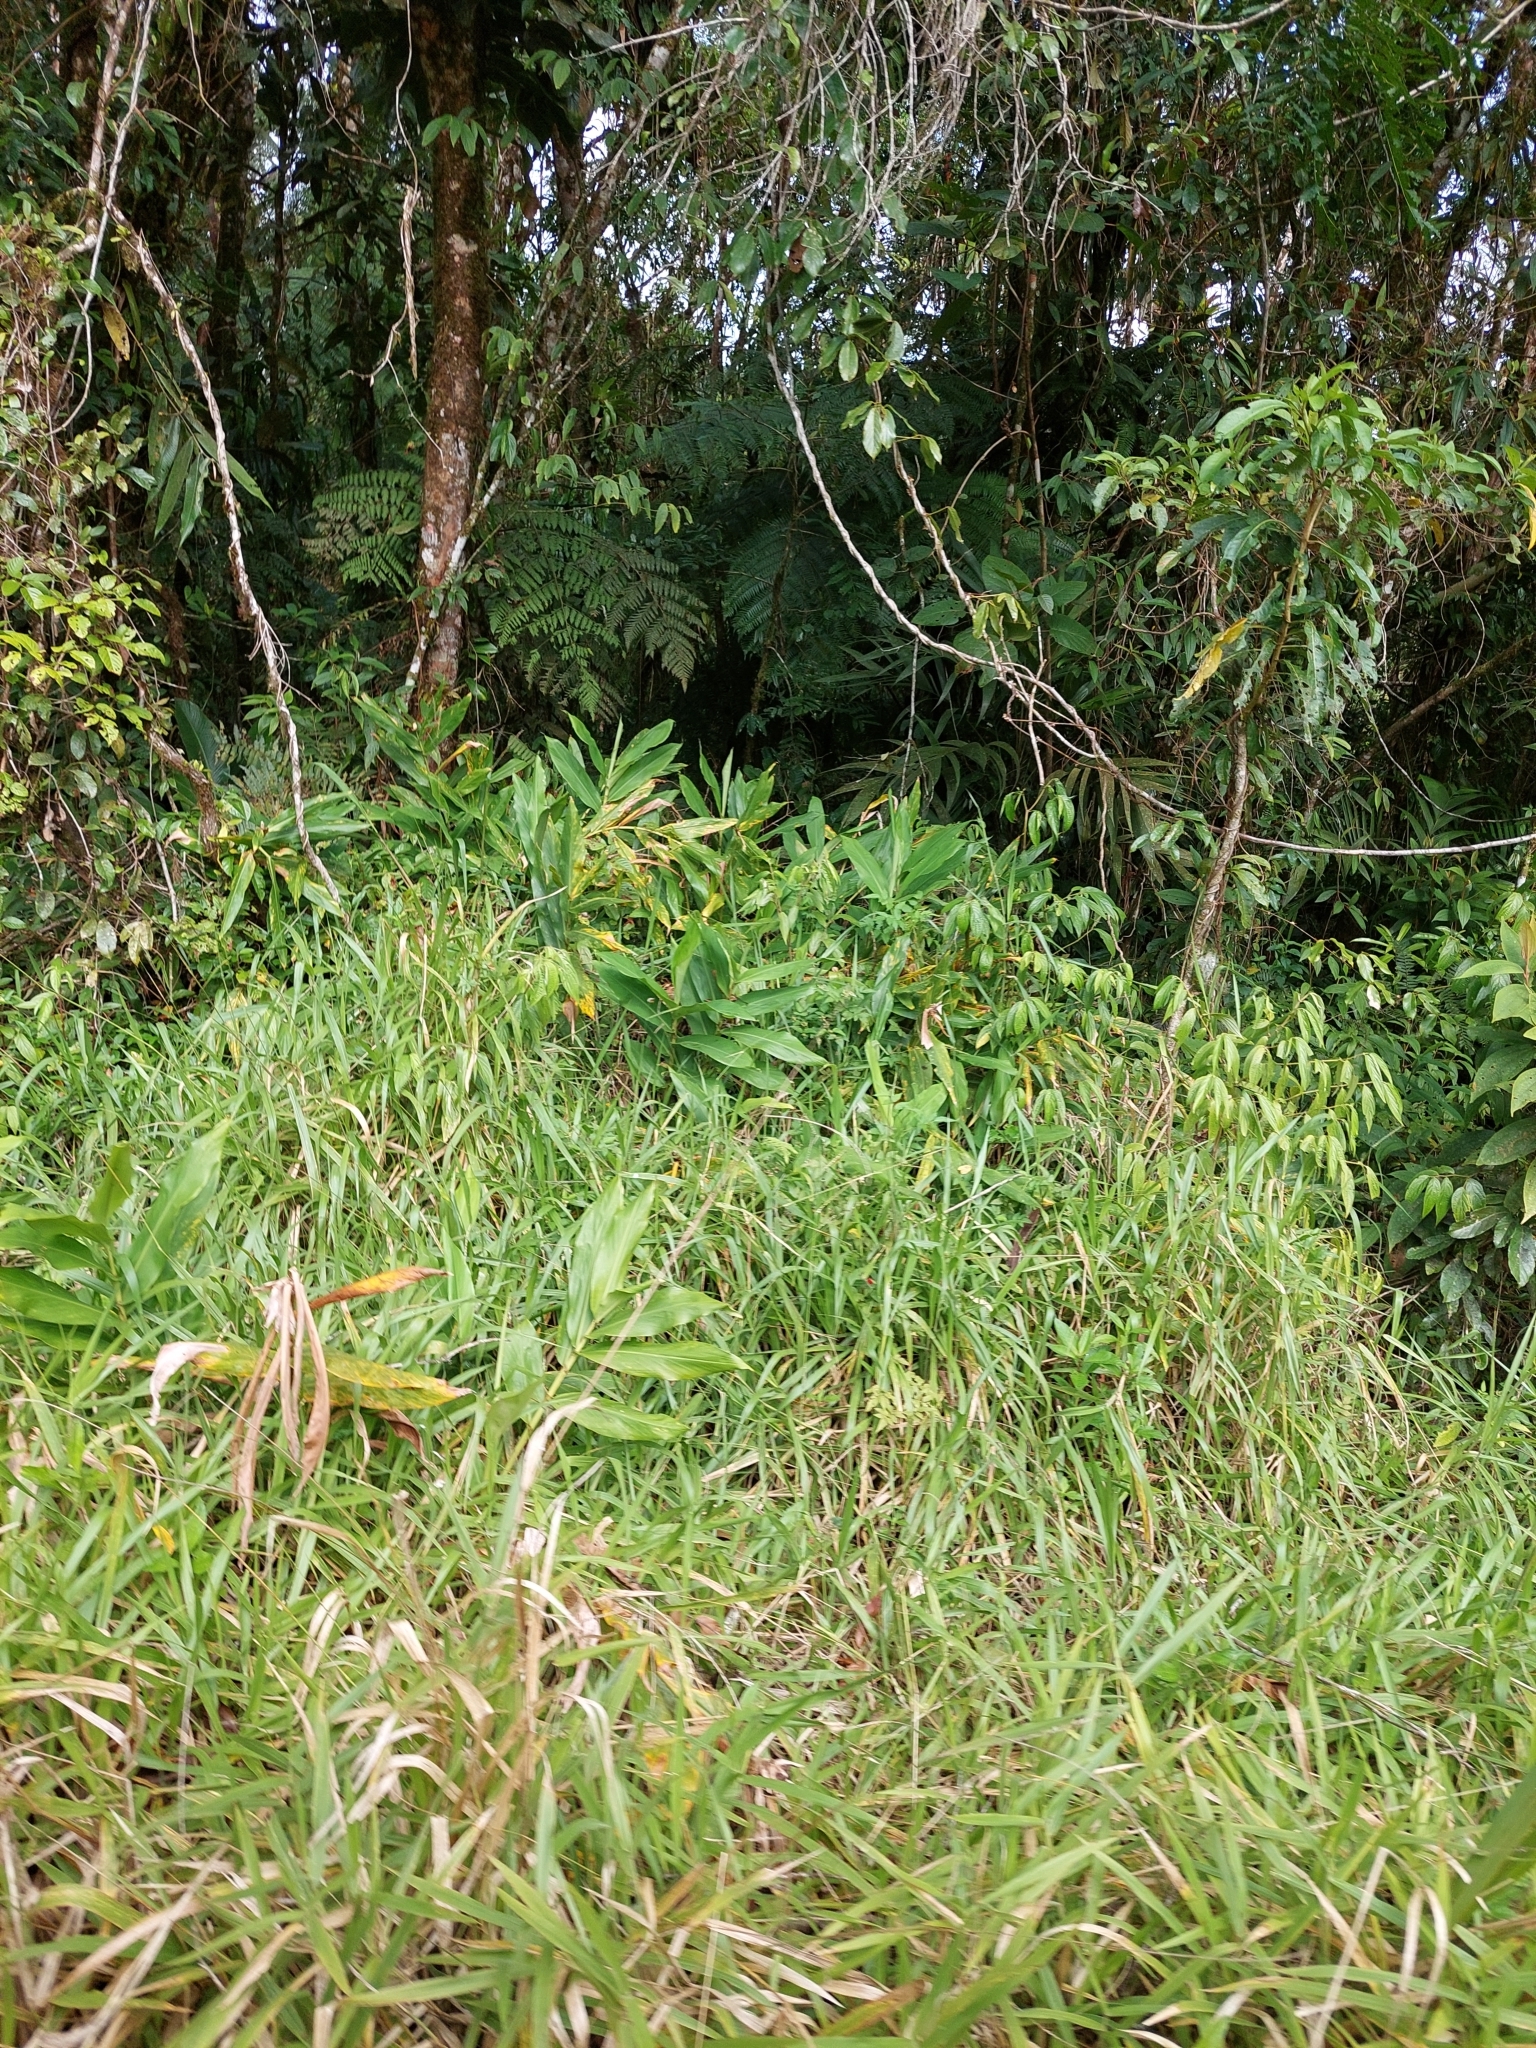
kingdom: Plantae
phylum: Tracheophyta
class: Liliopsida
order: Zingiberales
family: Zingiberaceae
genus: Hedychium
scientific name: Hedychium coronarium
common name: White garland-lily
